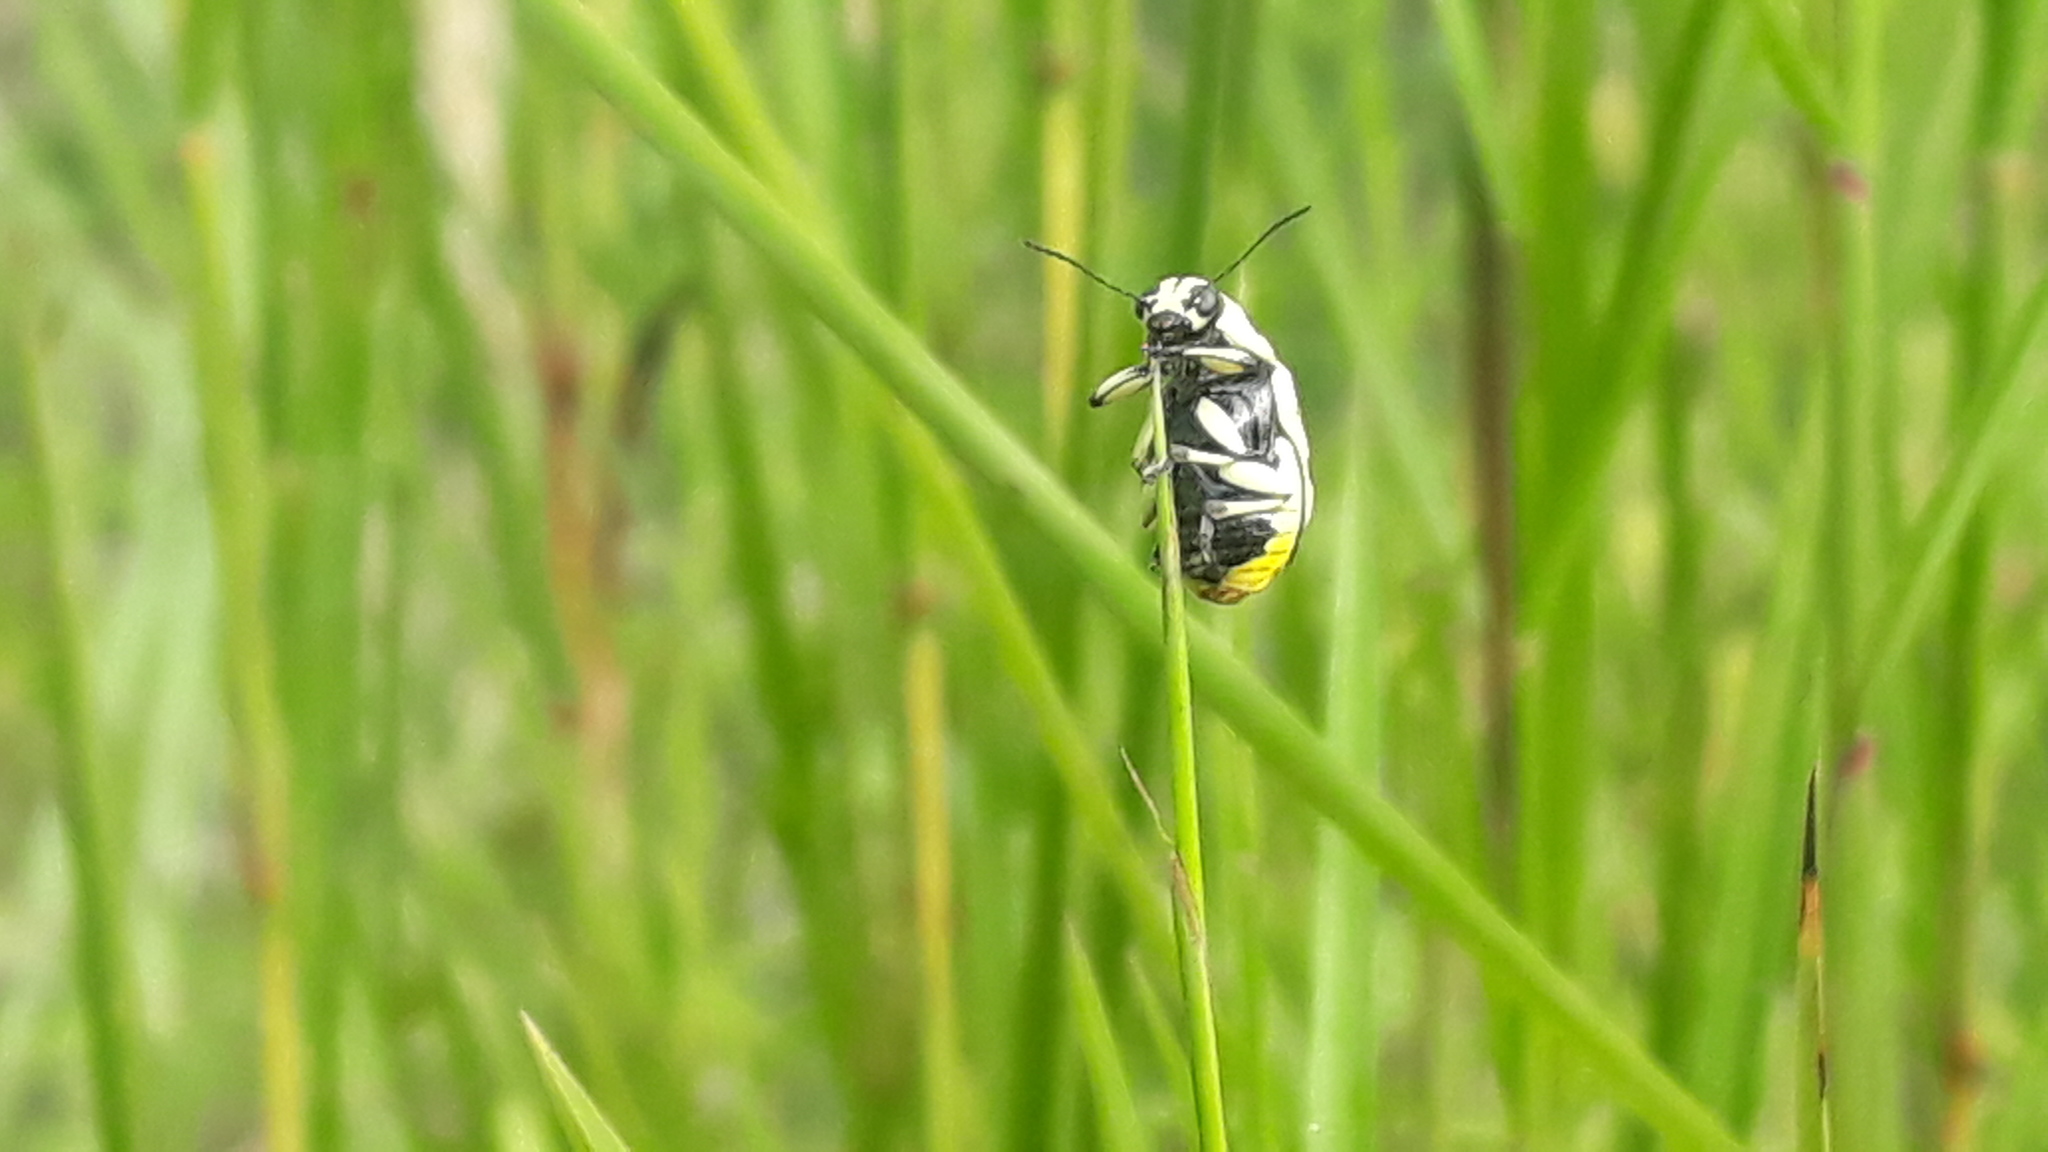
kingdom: Animalia
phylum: Arthropoda
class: Insecta
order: Coleoptera
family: Chrysomelidae
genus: Metallactus
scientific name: Metallactus albipes
